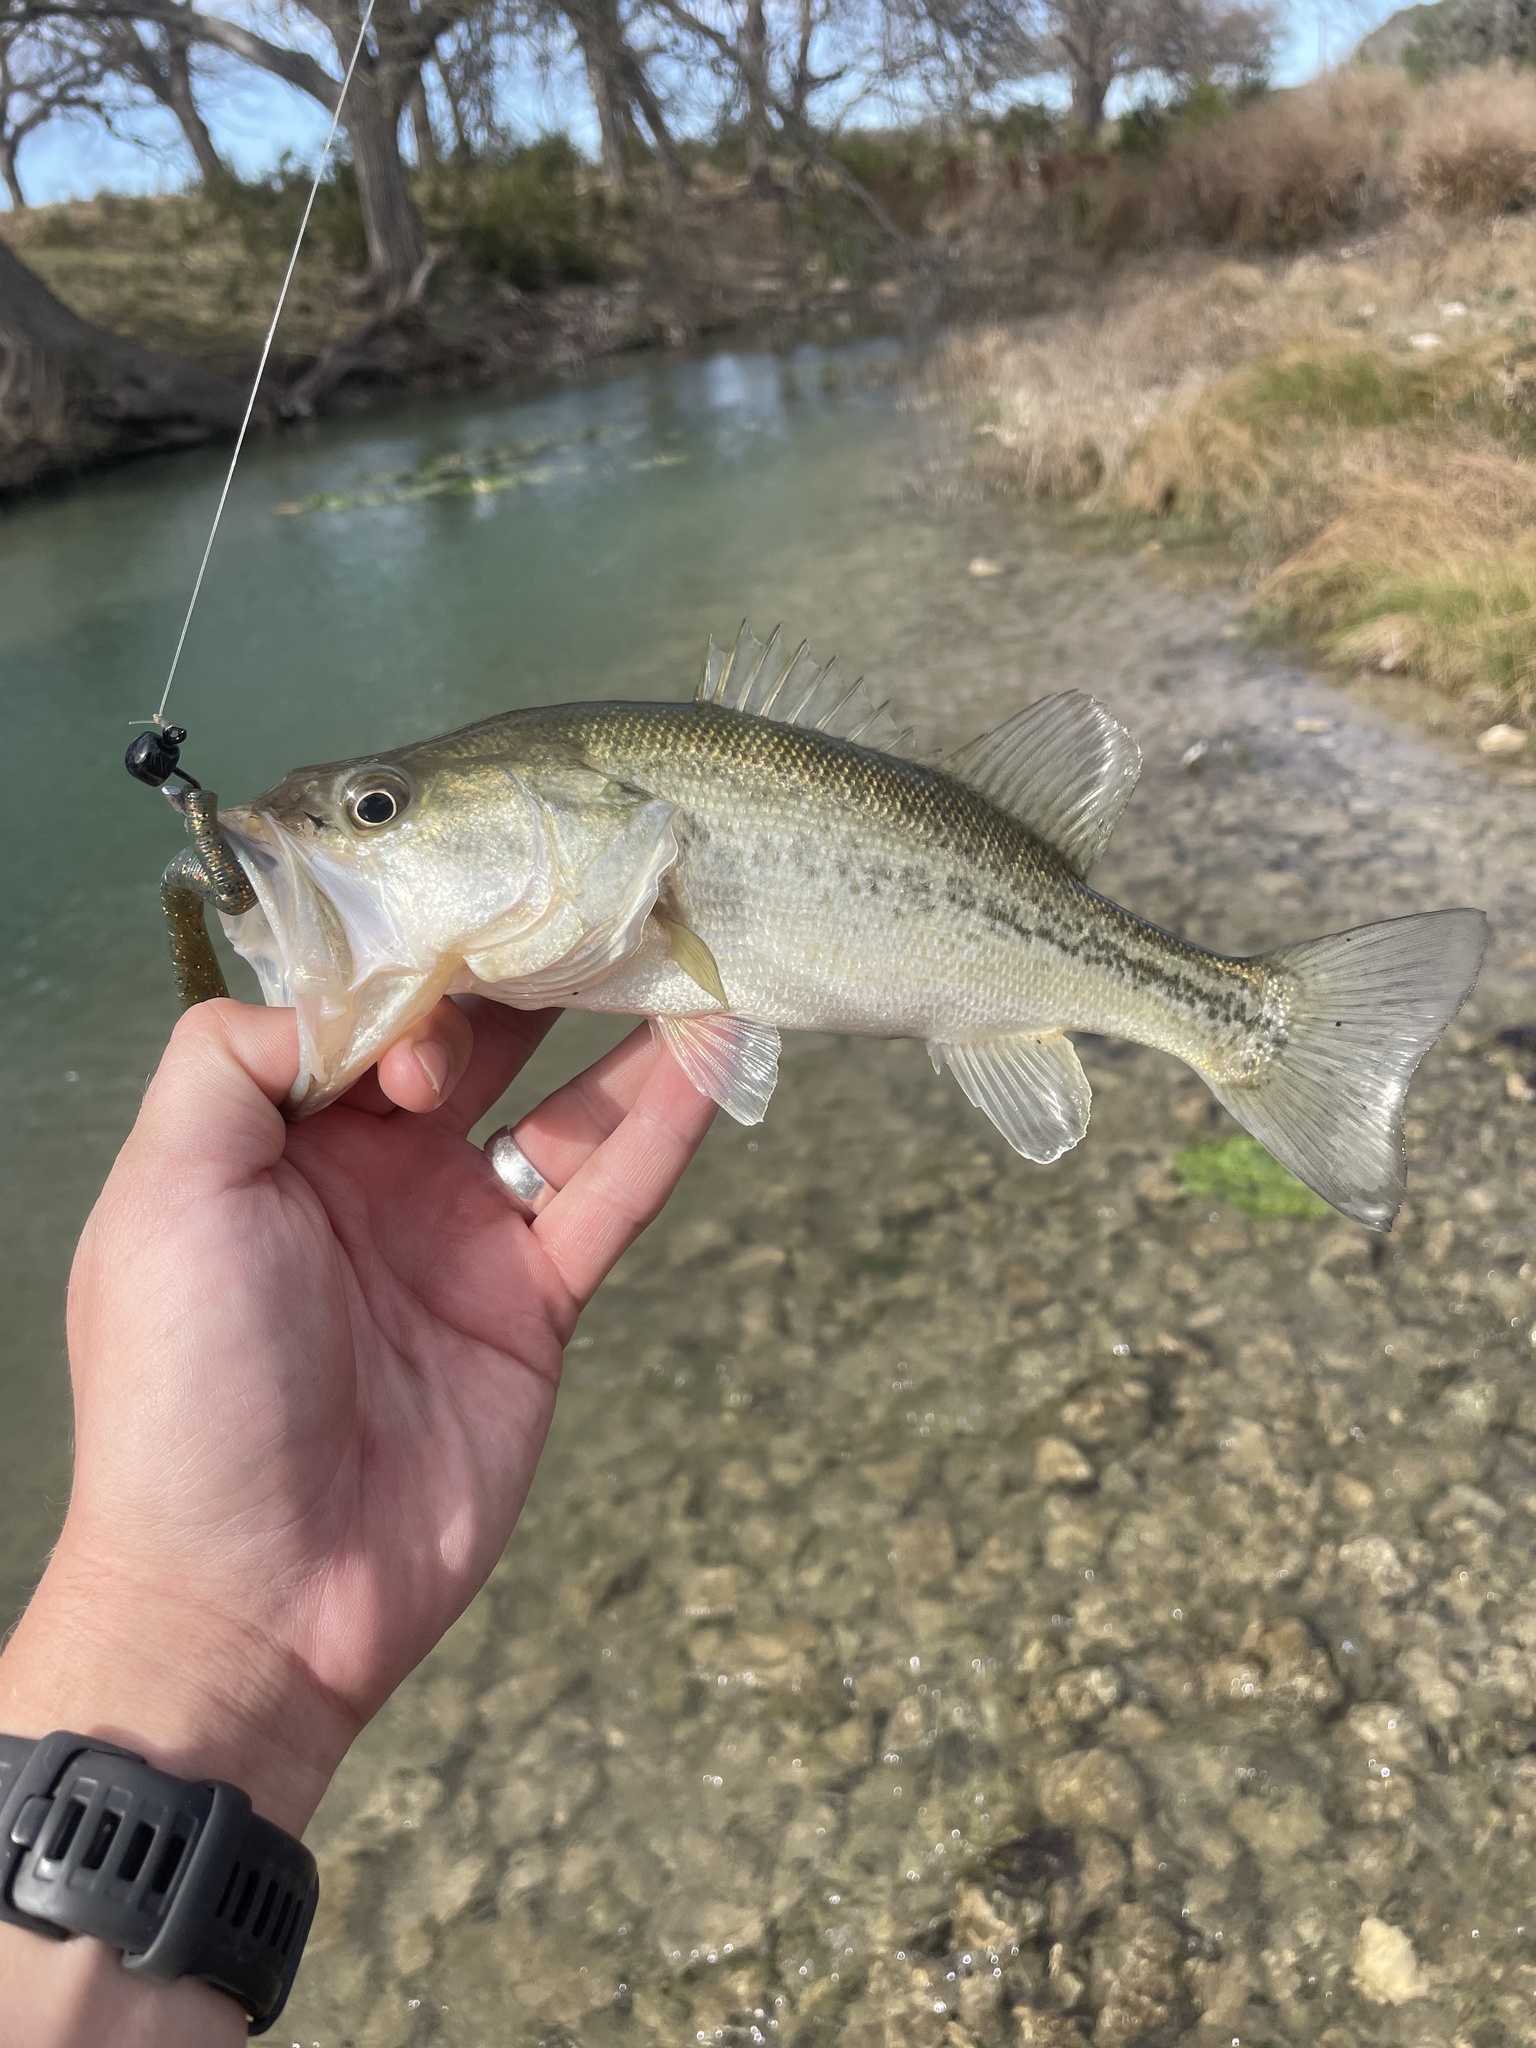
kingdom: Animalia
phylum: Chordata
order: Perciformes
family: Centrarchidae
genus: Micropterus
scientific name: Micropterus
